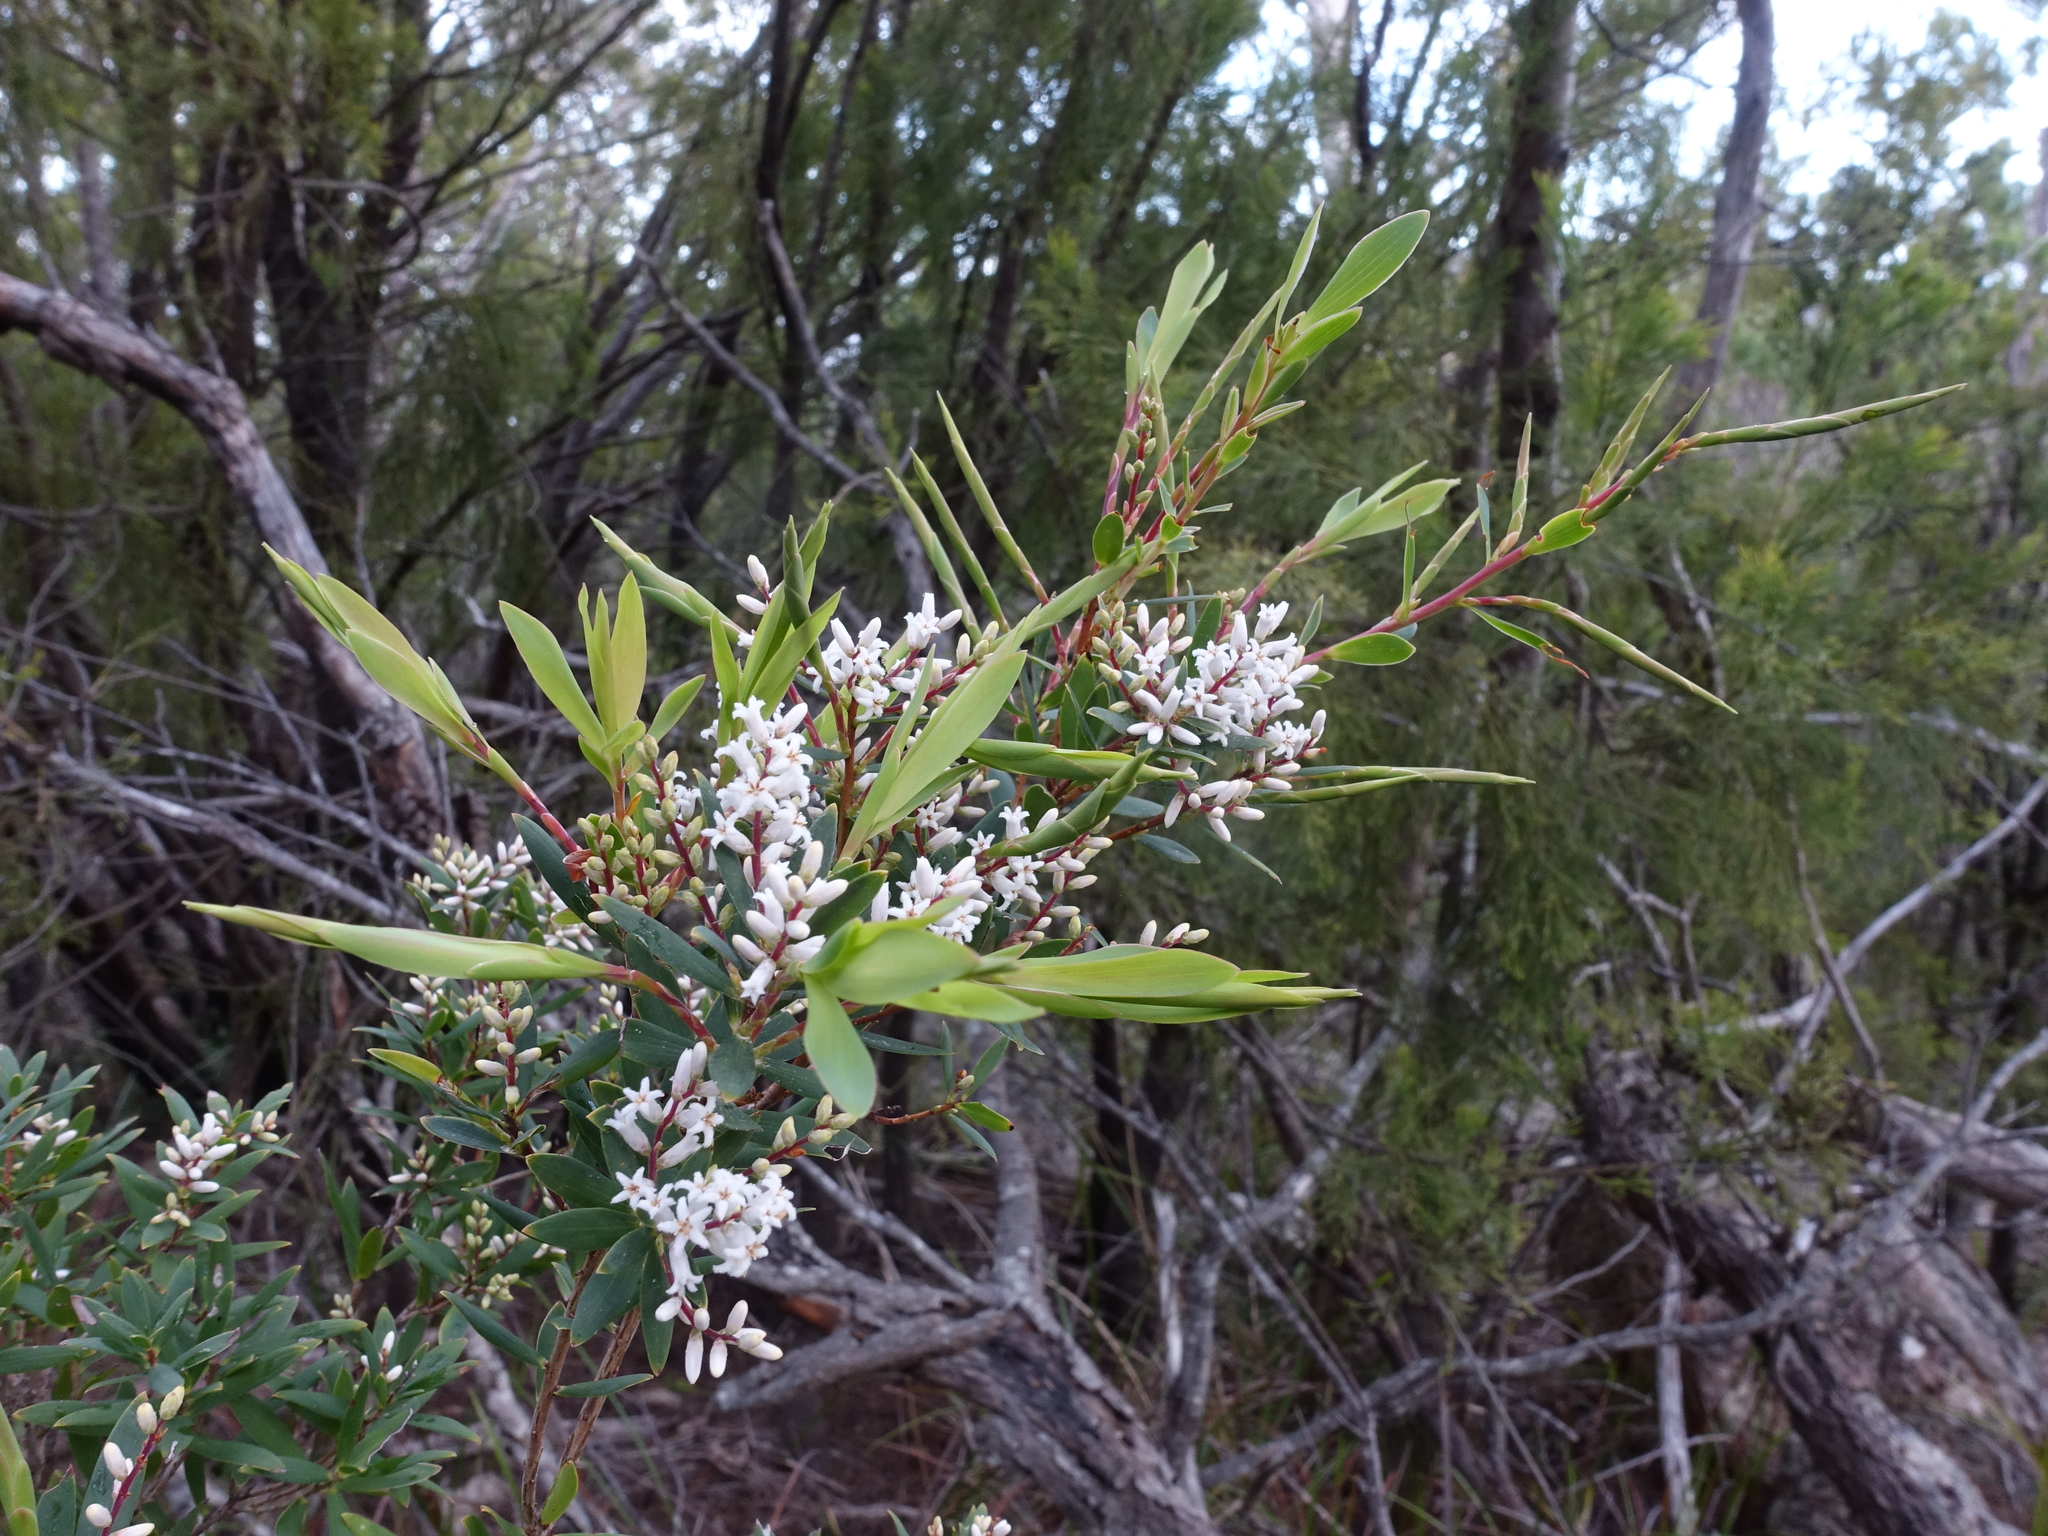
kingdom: Plantae
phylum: Tracheophyta
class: Magnoliopsida
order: Ericales
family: Ericaceae
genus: Leucopogon
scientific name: Leucopogon australis
